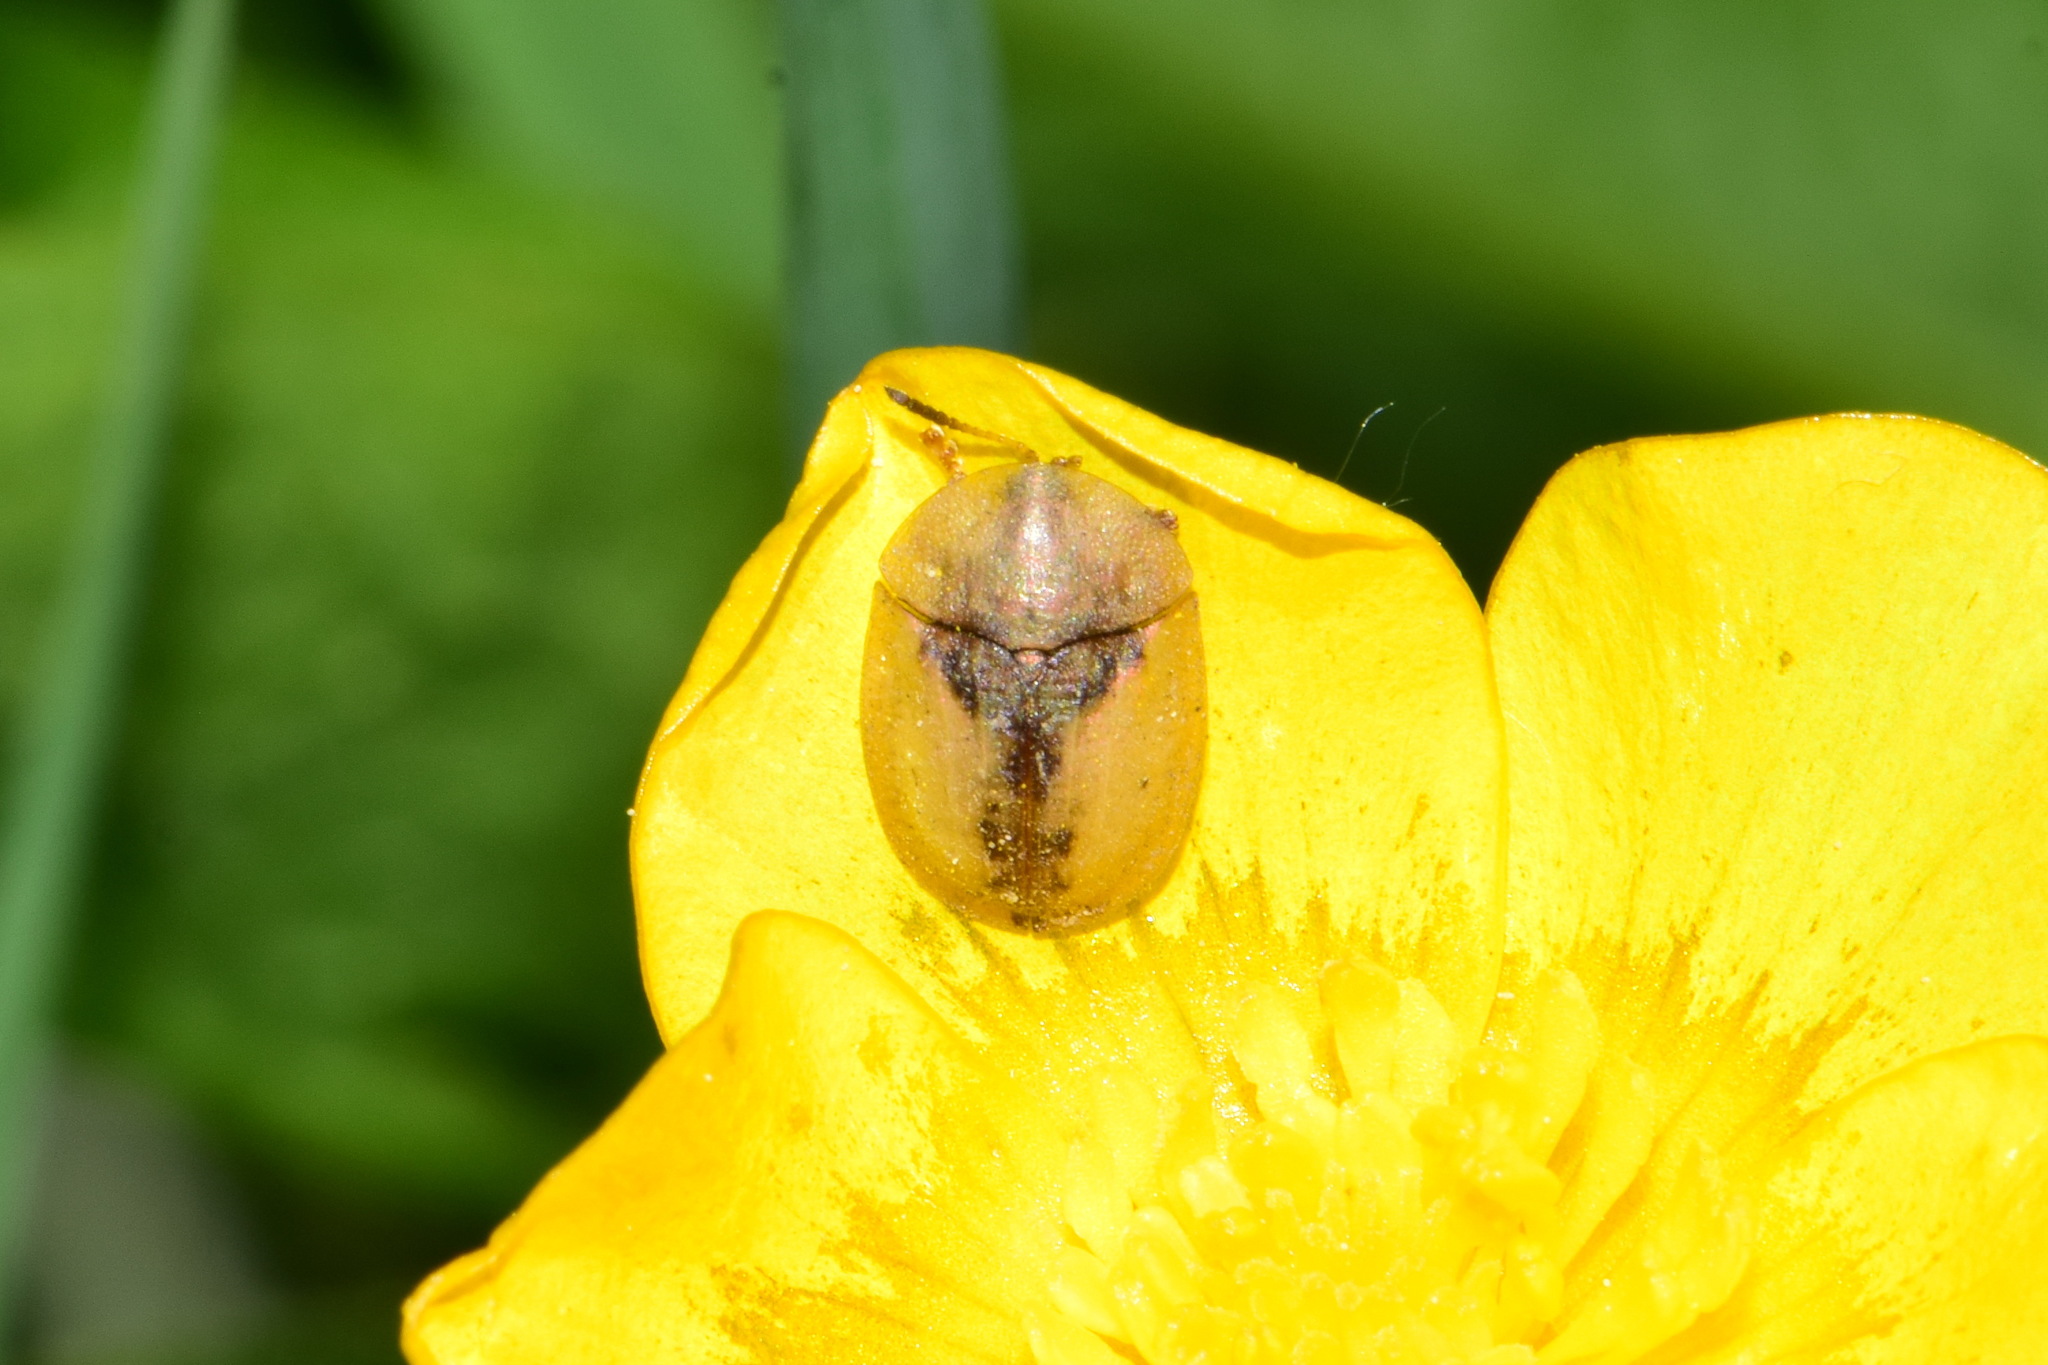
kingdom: Animalia
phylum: Arthropoda
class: Insecta
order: Coleoptera
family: Chrysomelidae
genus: Cassida
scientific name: Cassida vibex
